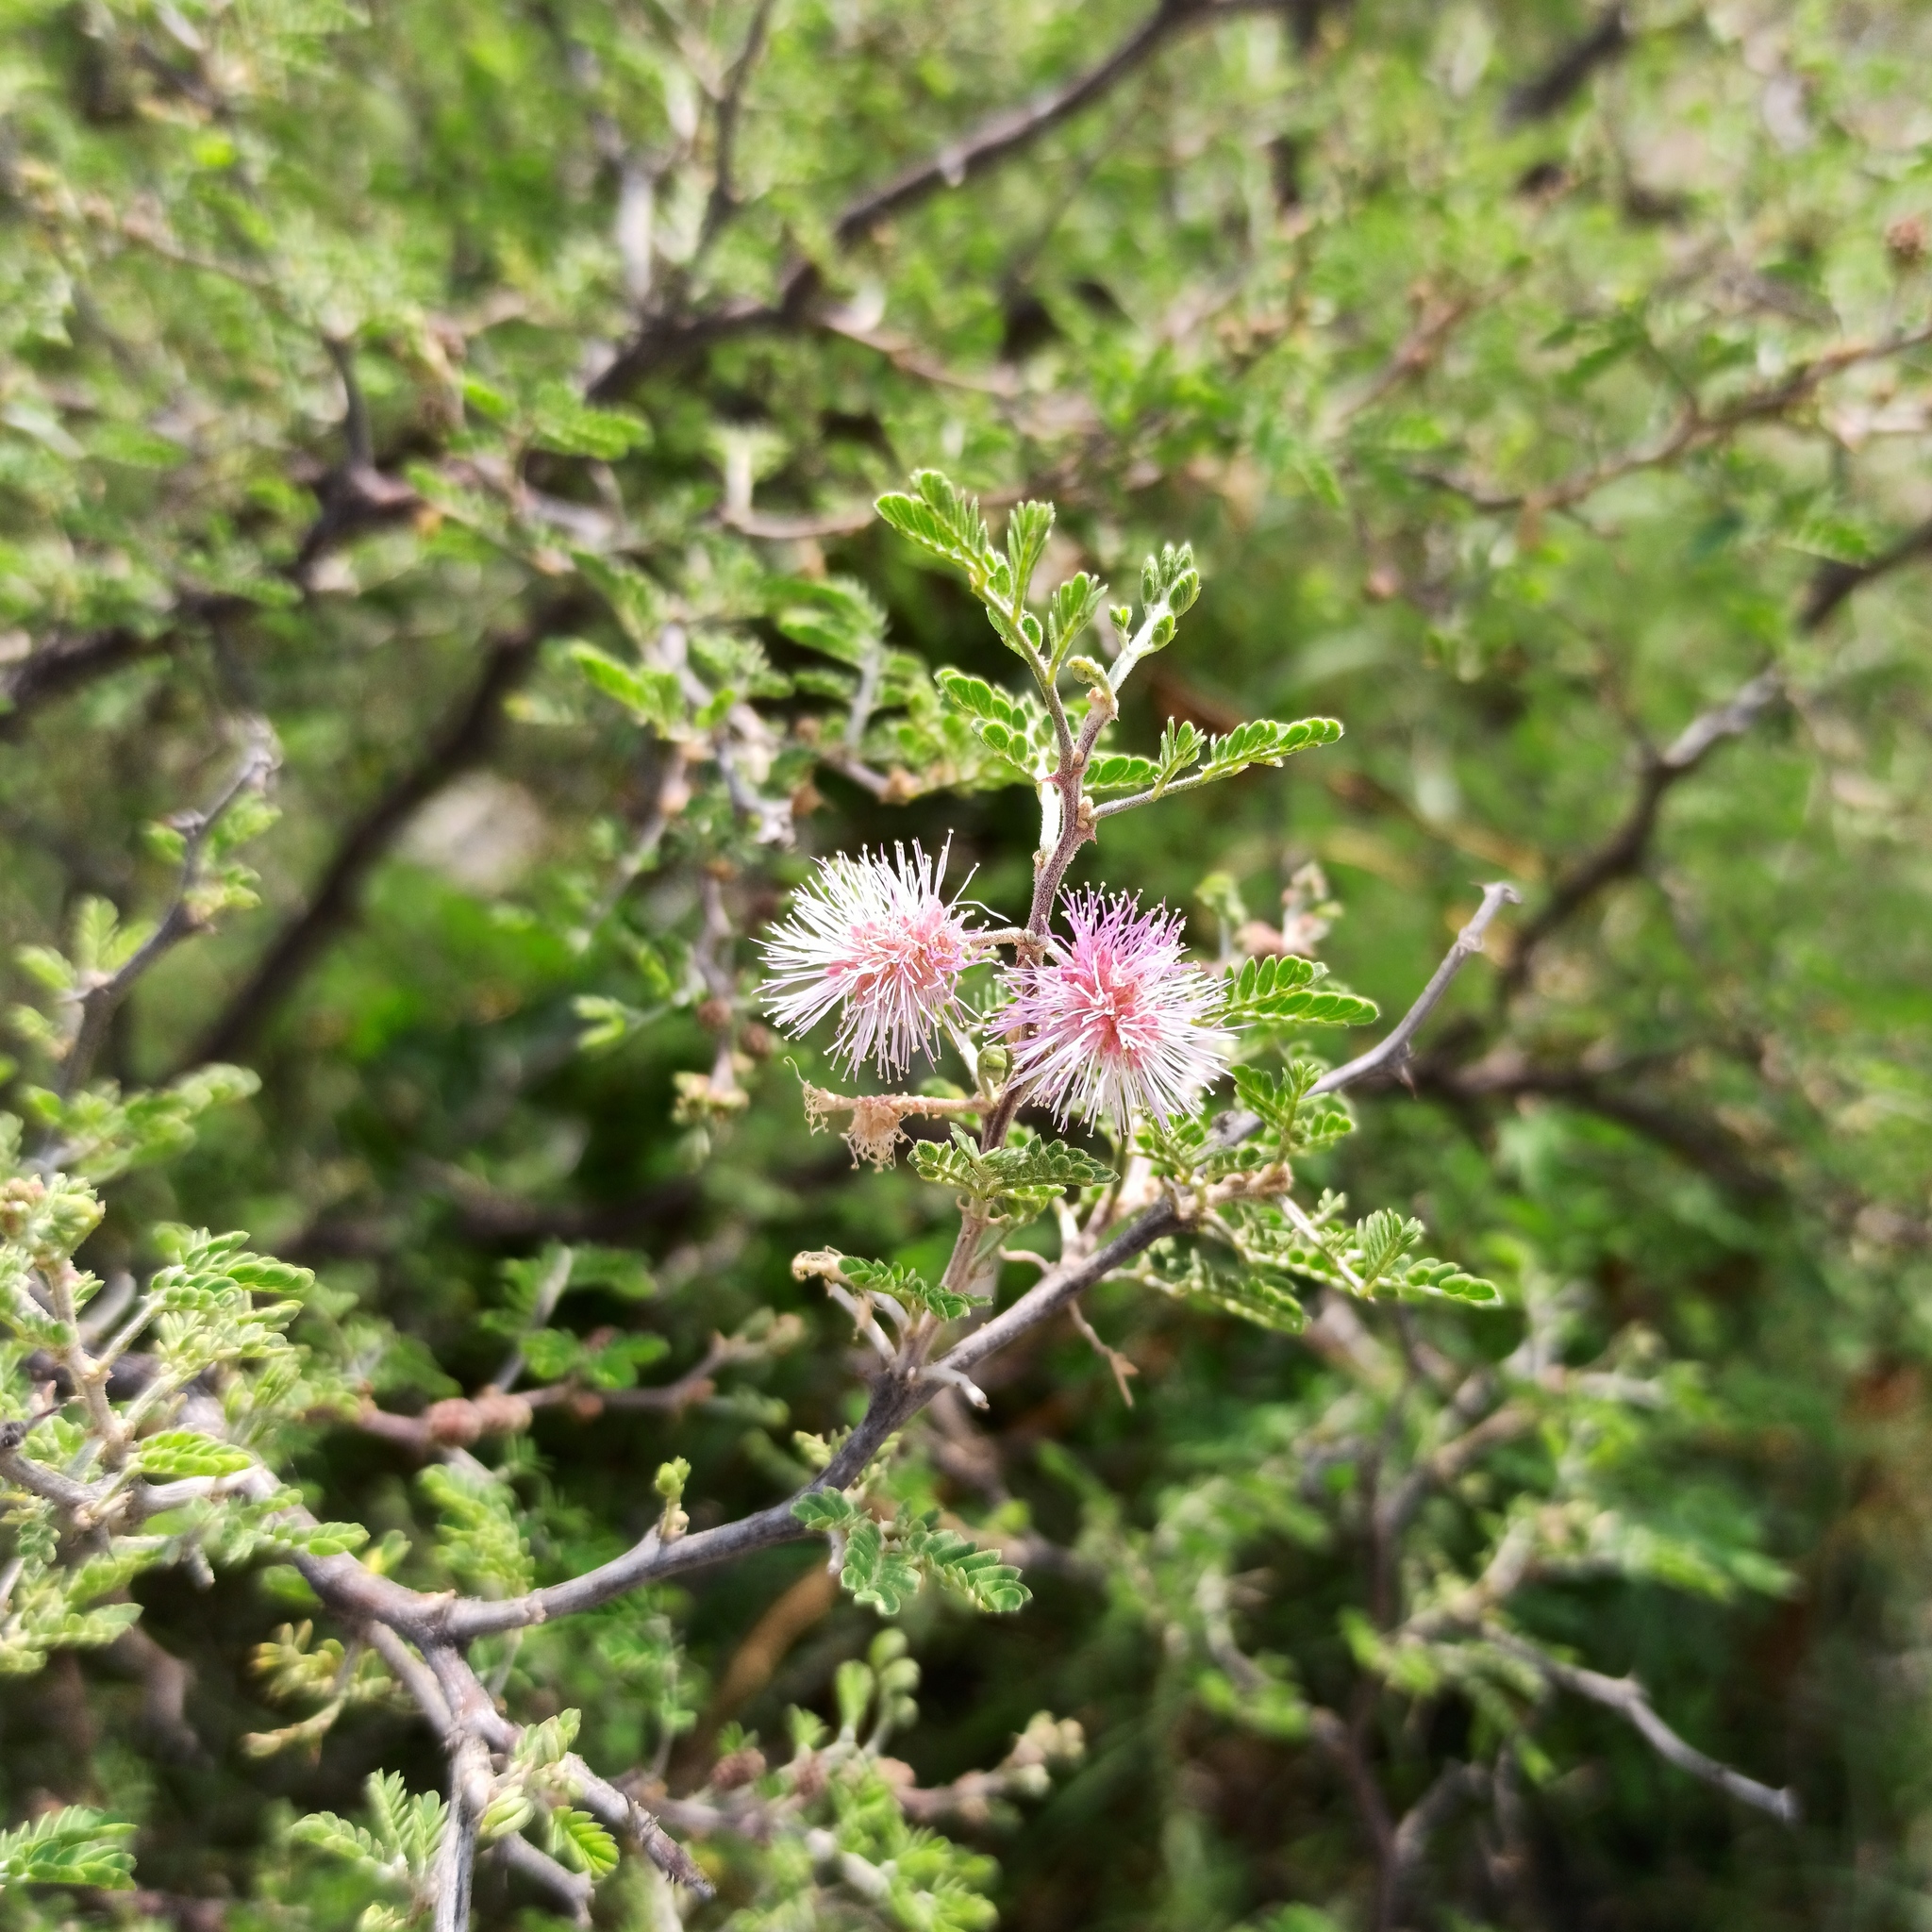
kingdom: Plantae
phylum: Tracheophyta
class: Magnoliopsida
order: Fabales
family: Fabaceae
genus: Mimosa
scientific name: Mimosa aculeaticarpa
